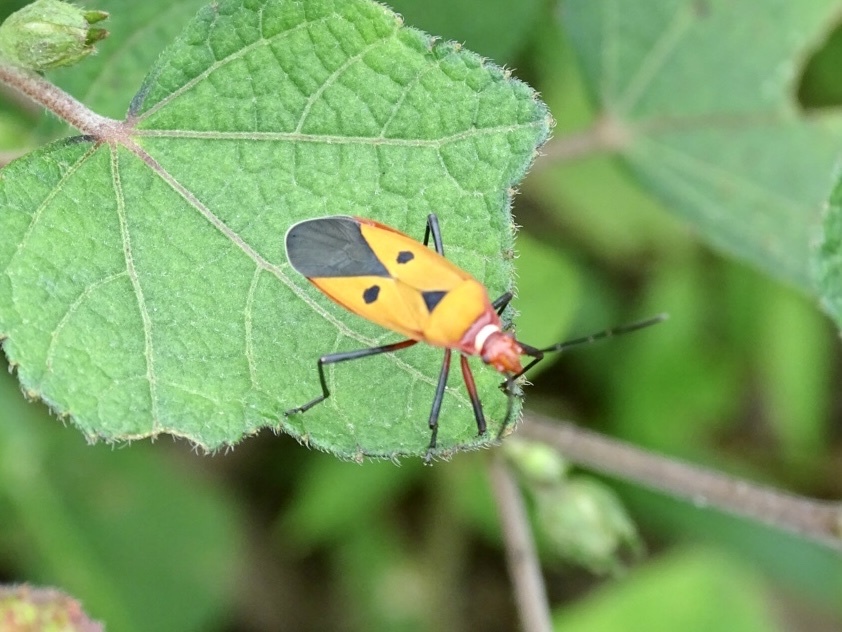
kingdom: Animalia
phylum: Arthropoda
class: Insecta
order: Hemiptera
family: Pyrrhocoridae
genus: Dysdercus
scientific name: Dysdercus cingulatus
